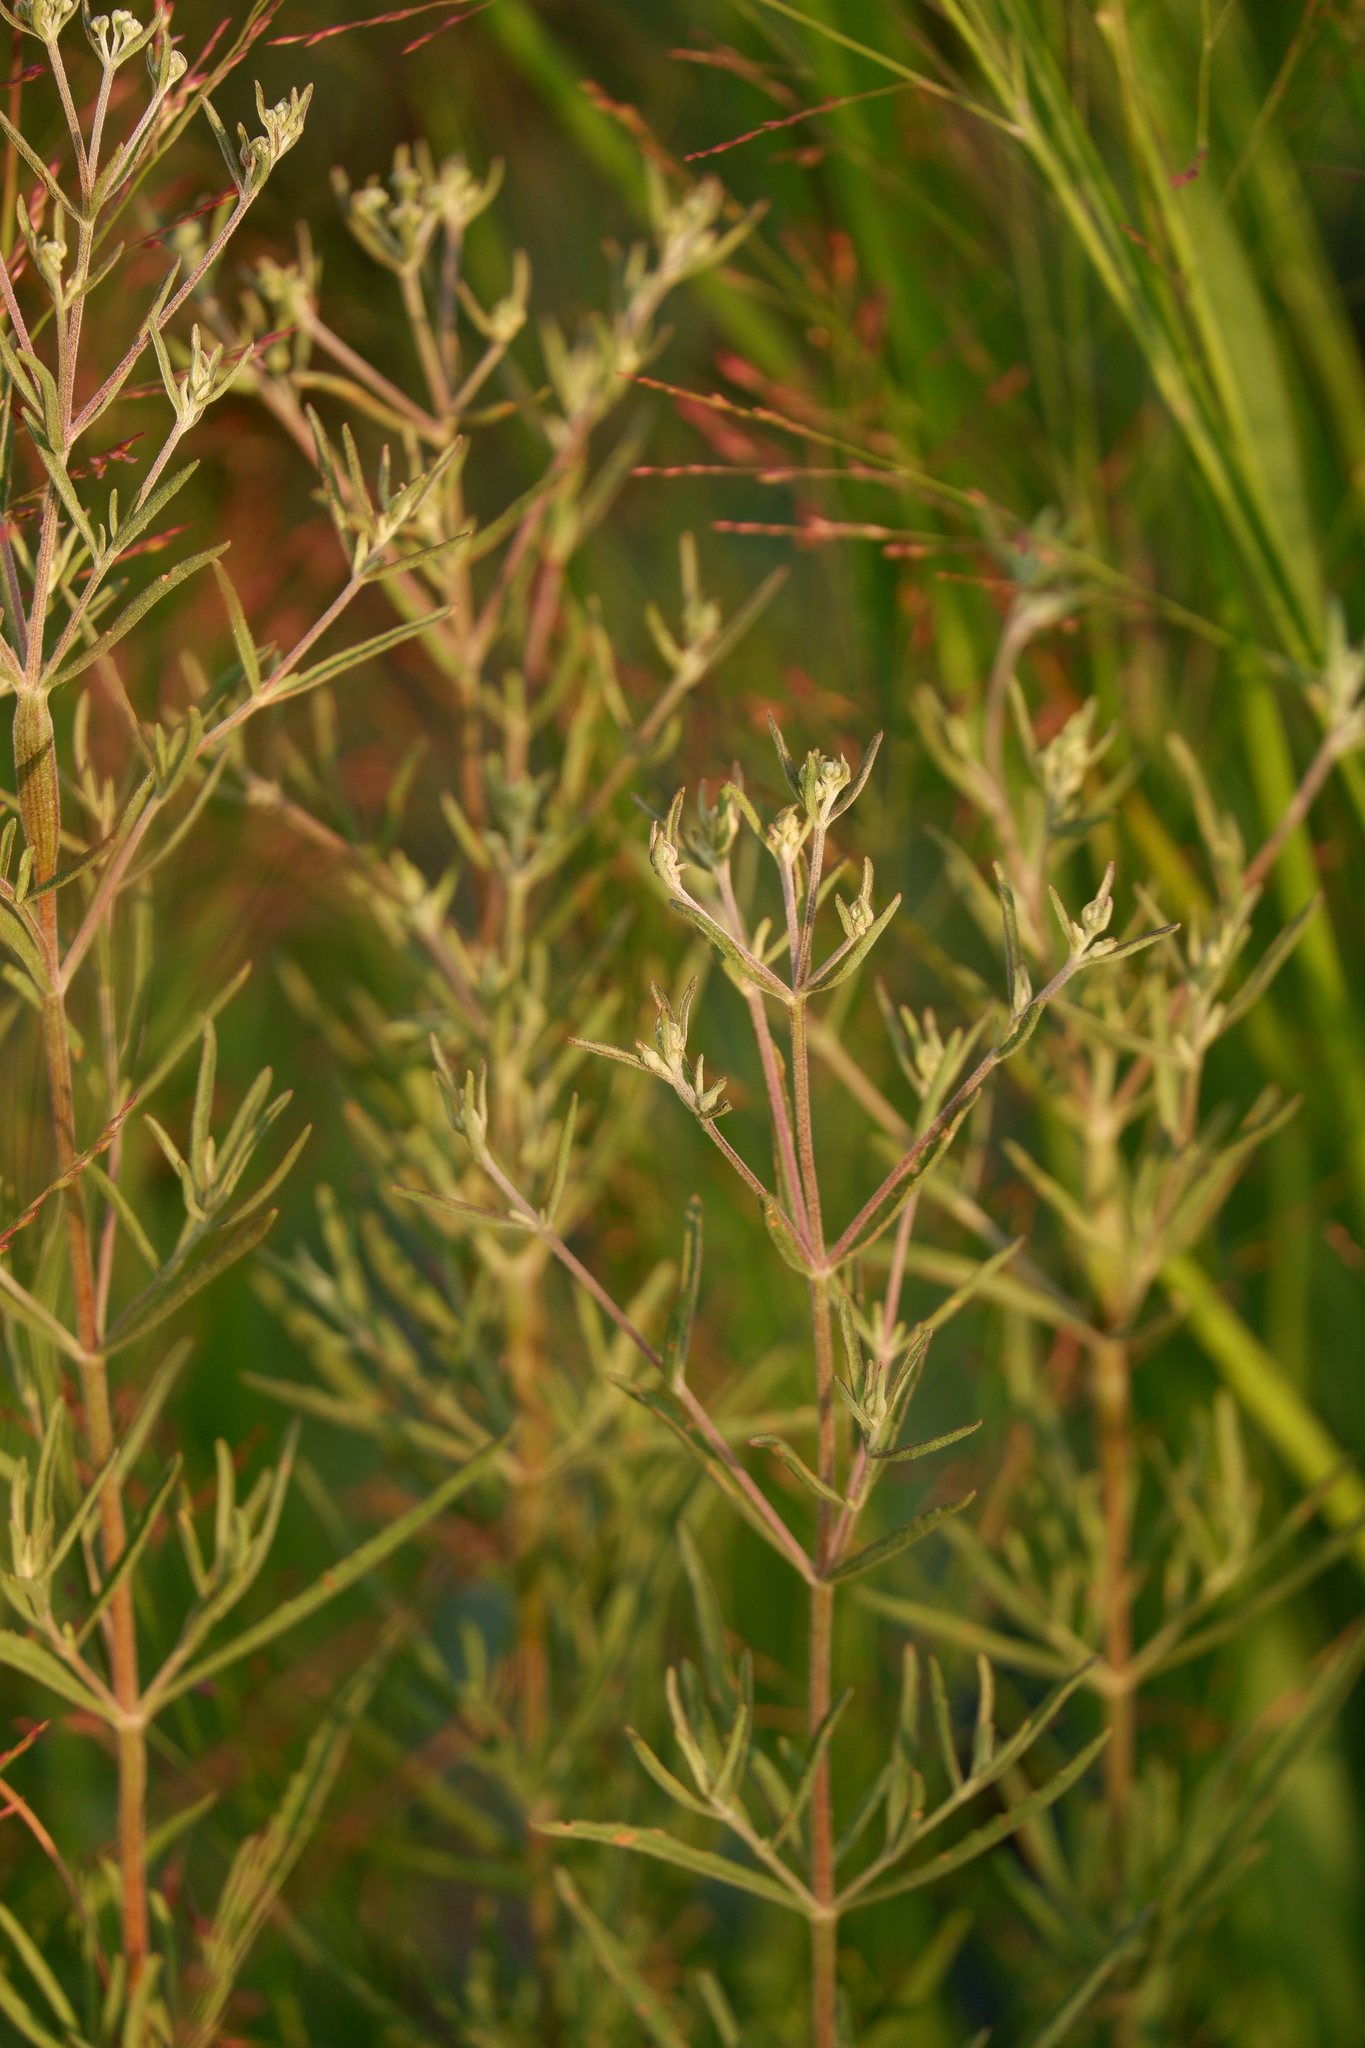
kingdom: Plantae
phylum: Tracheophyta
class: Magnoliopsida
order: Asterales
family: Asteraceae
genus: Eupatorium
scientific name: Eupatorium torreyanum
